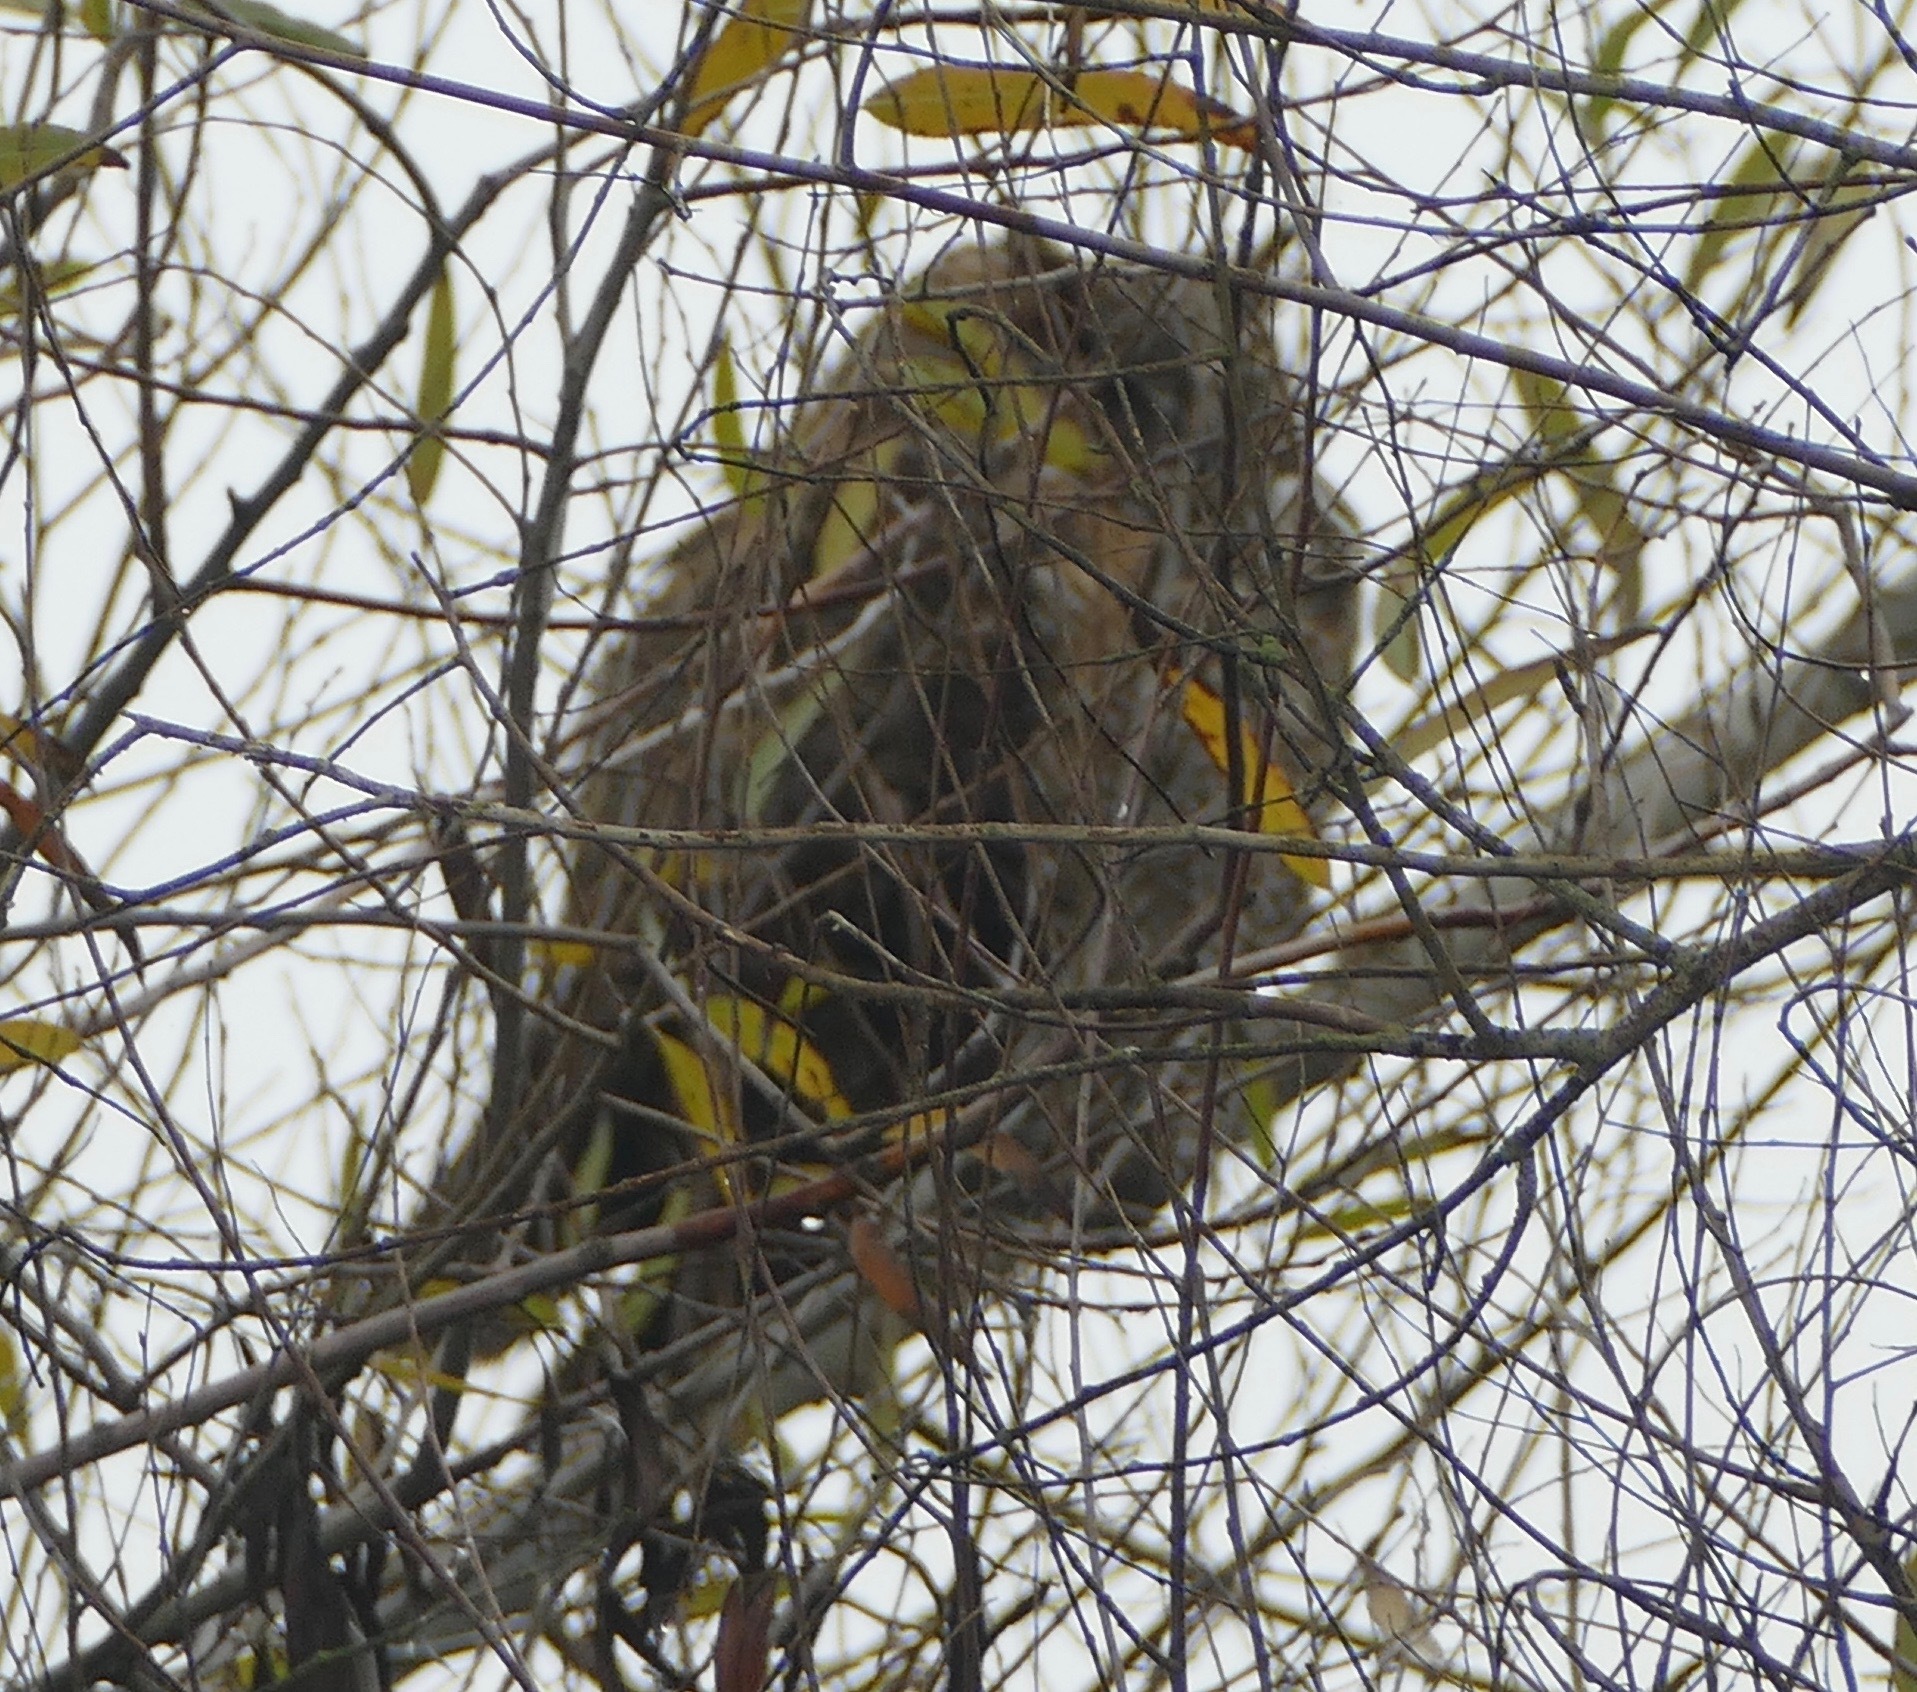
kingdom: Animalia
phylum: Chordata
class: Aves
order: Strigiformes
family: Strigidae
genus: Bubo
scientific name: Bubo virginianus
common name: Great horned owl
